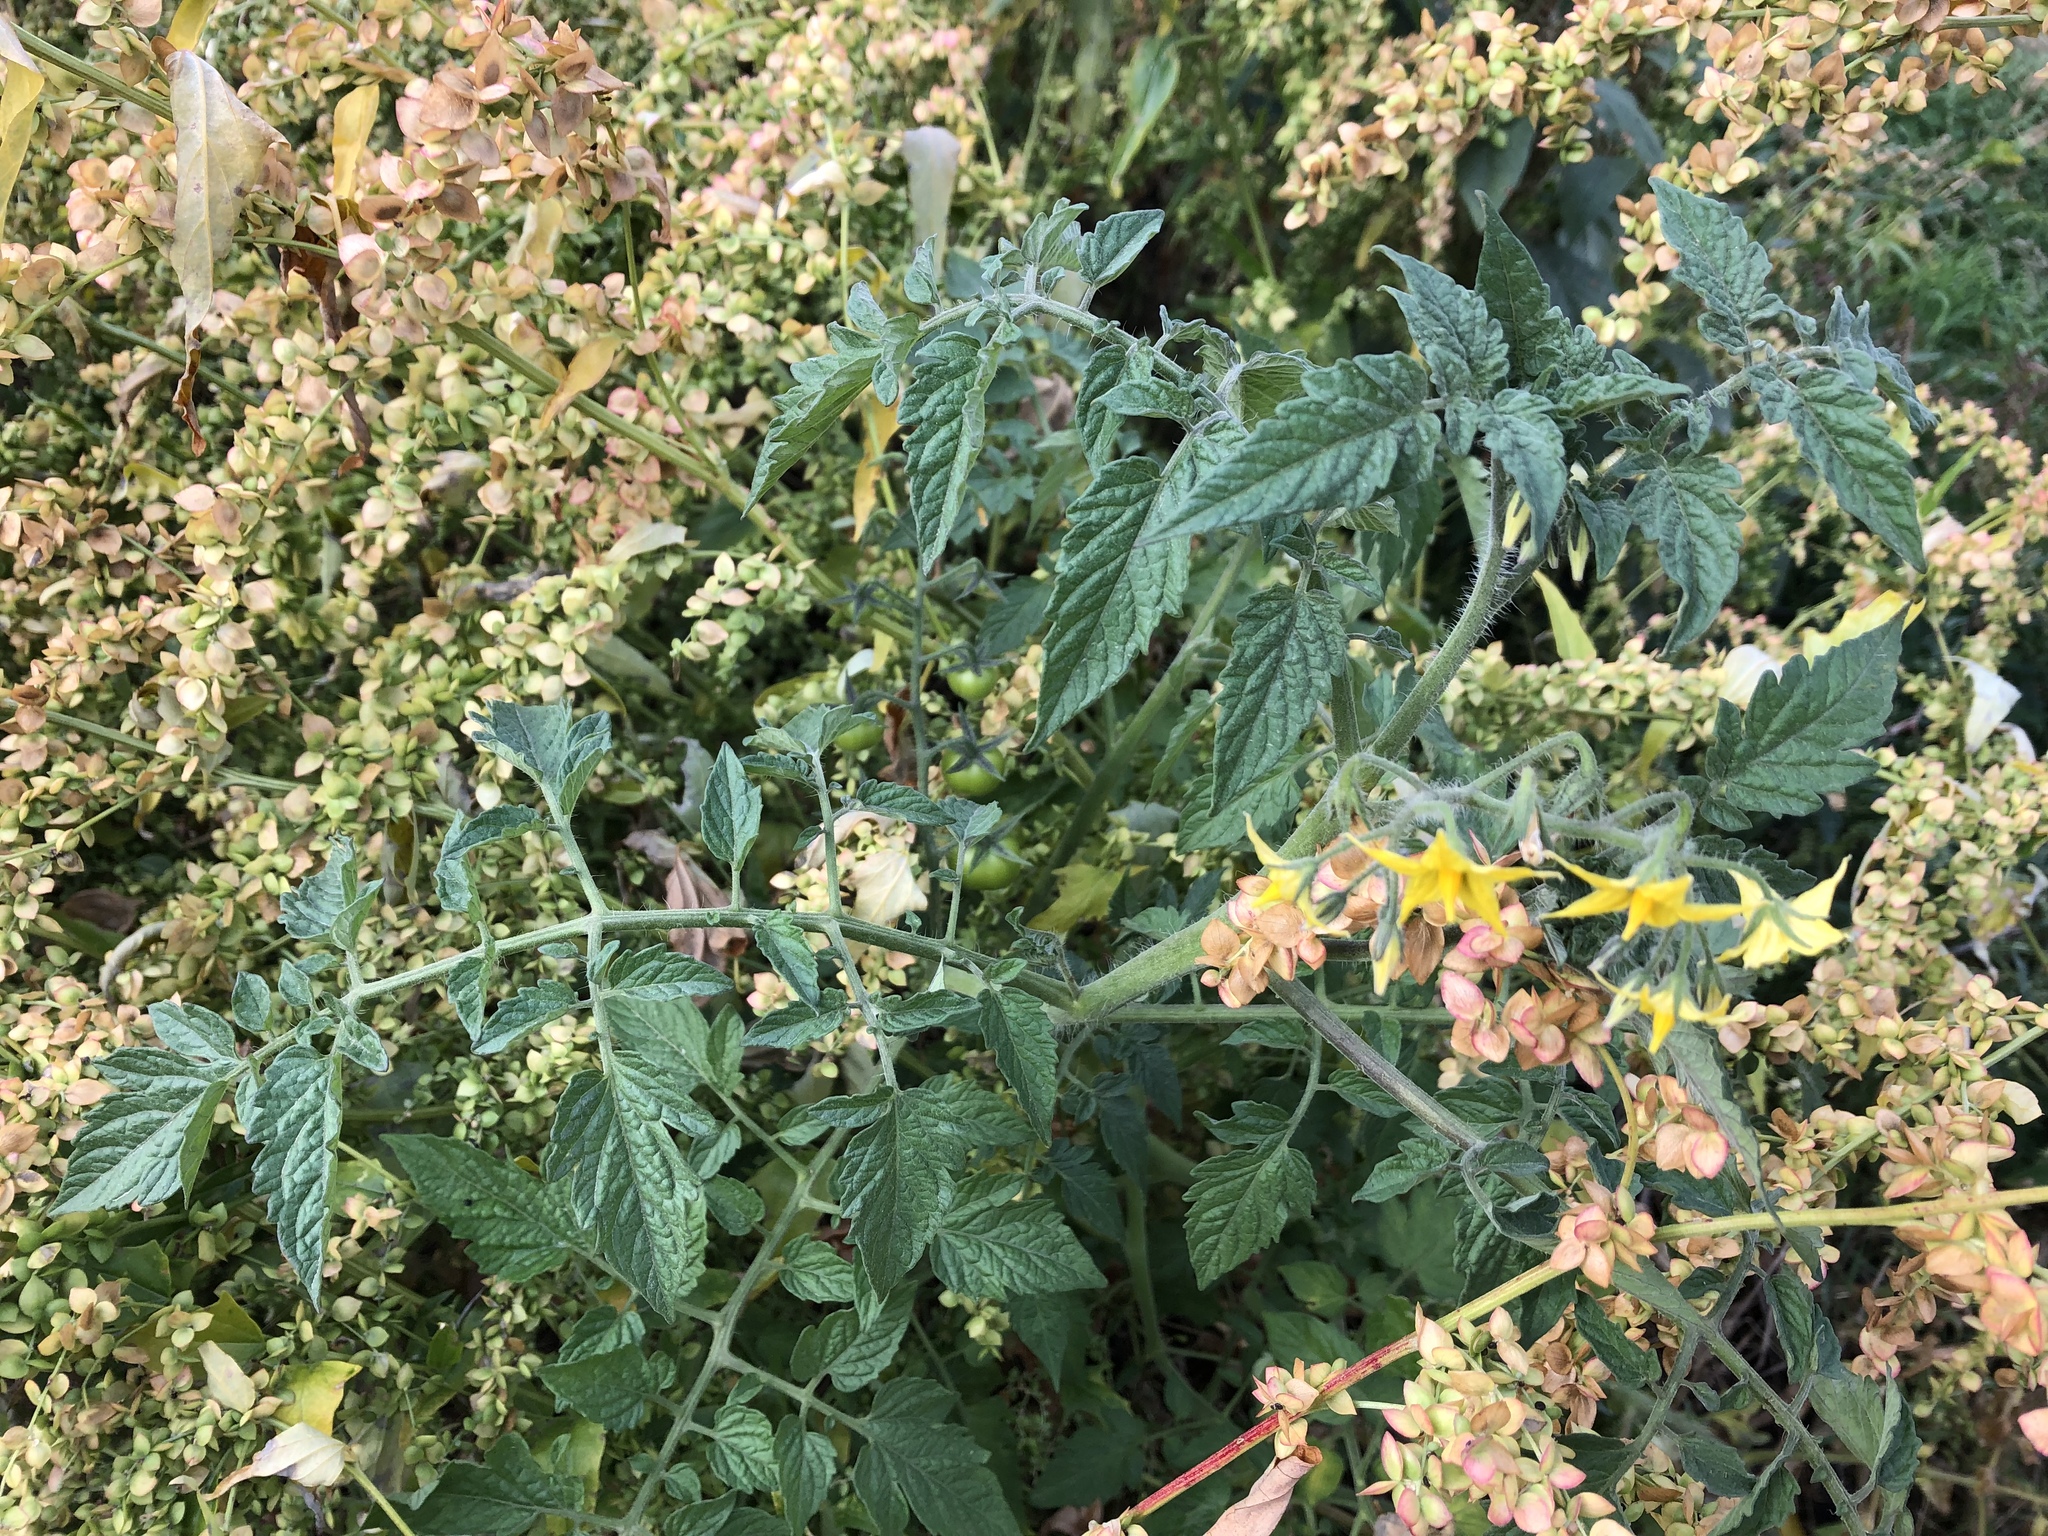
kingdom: Plantae
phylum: Tracheophyta
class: Magnoliopsida
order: Solanales
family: Solanaceae
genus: Solanum
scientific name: Solanum lycopersicum
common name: Garden tomato
